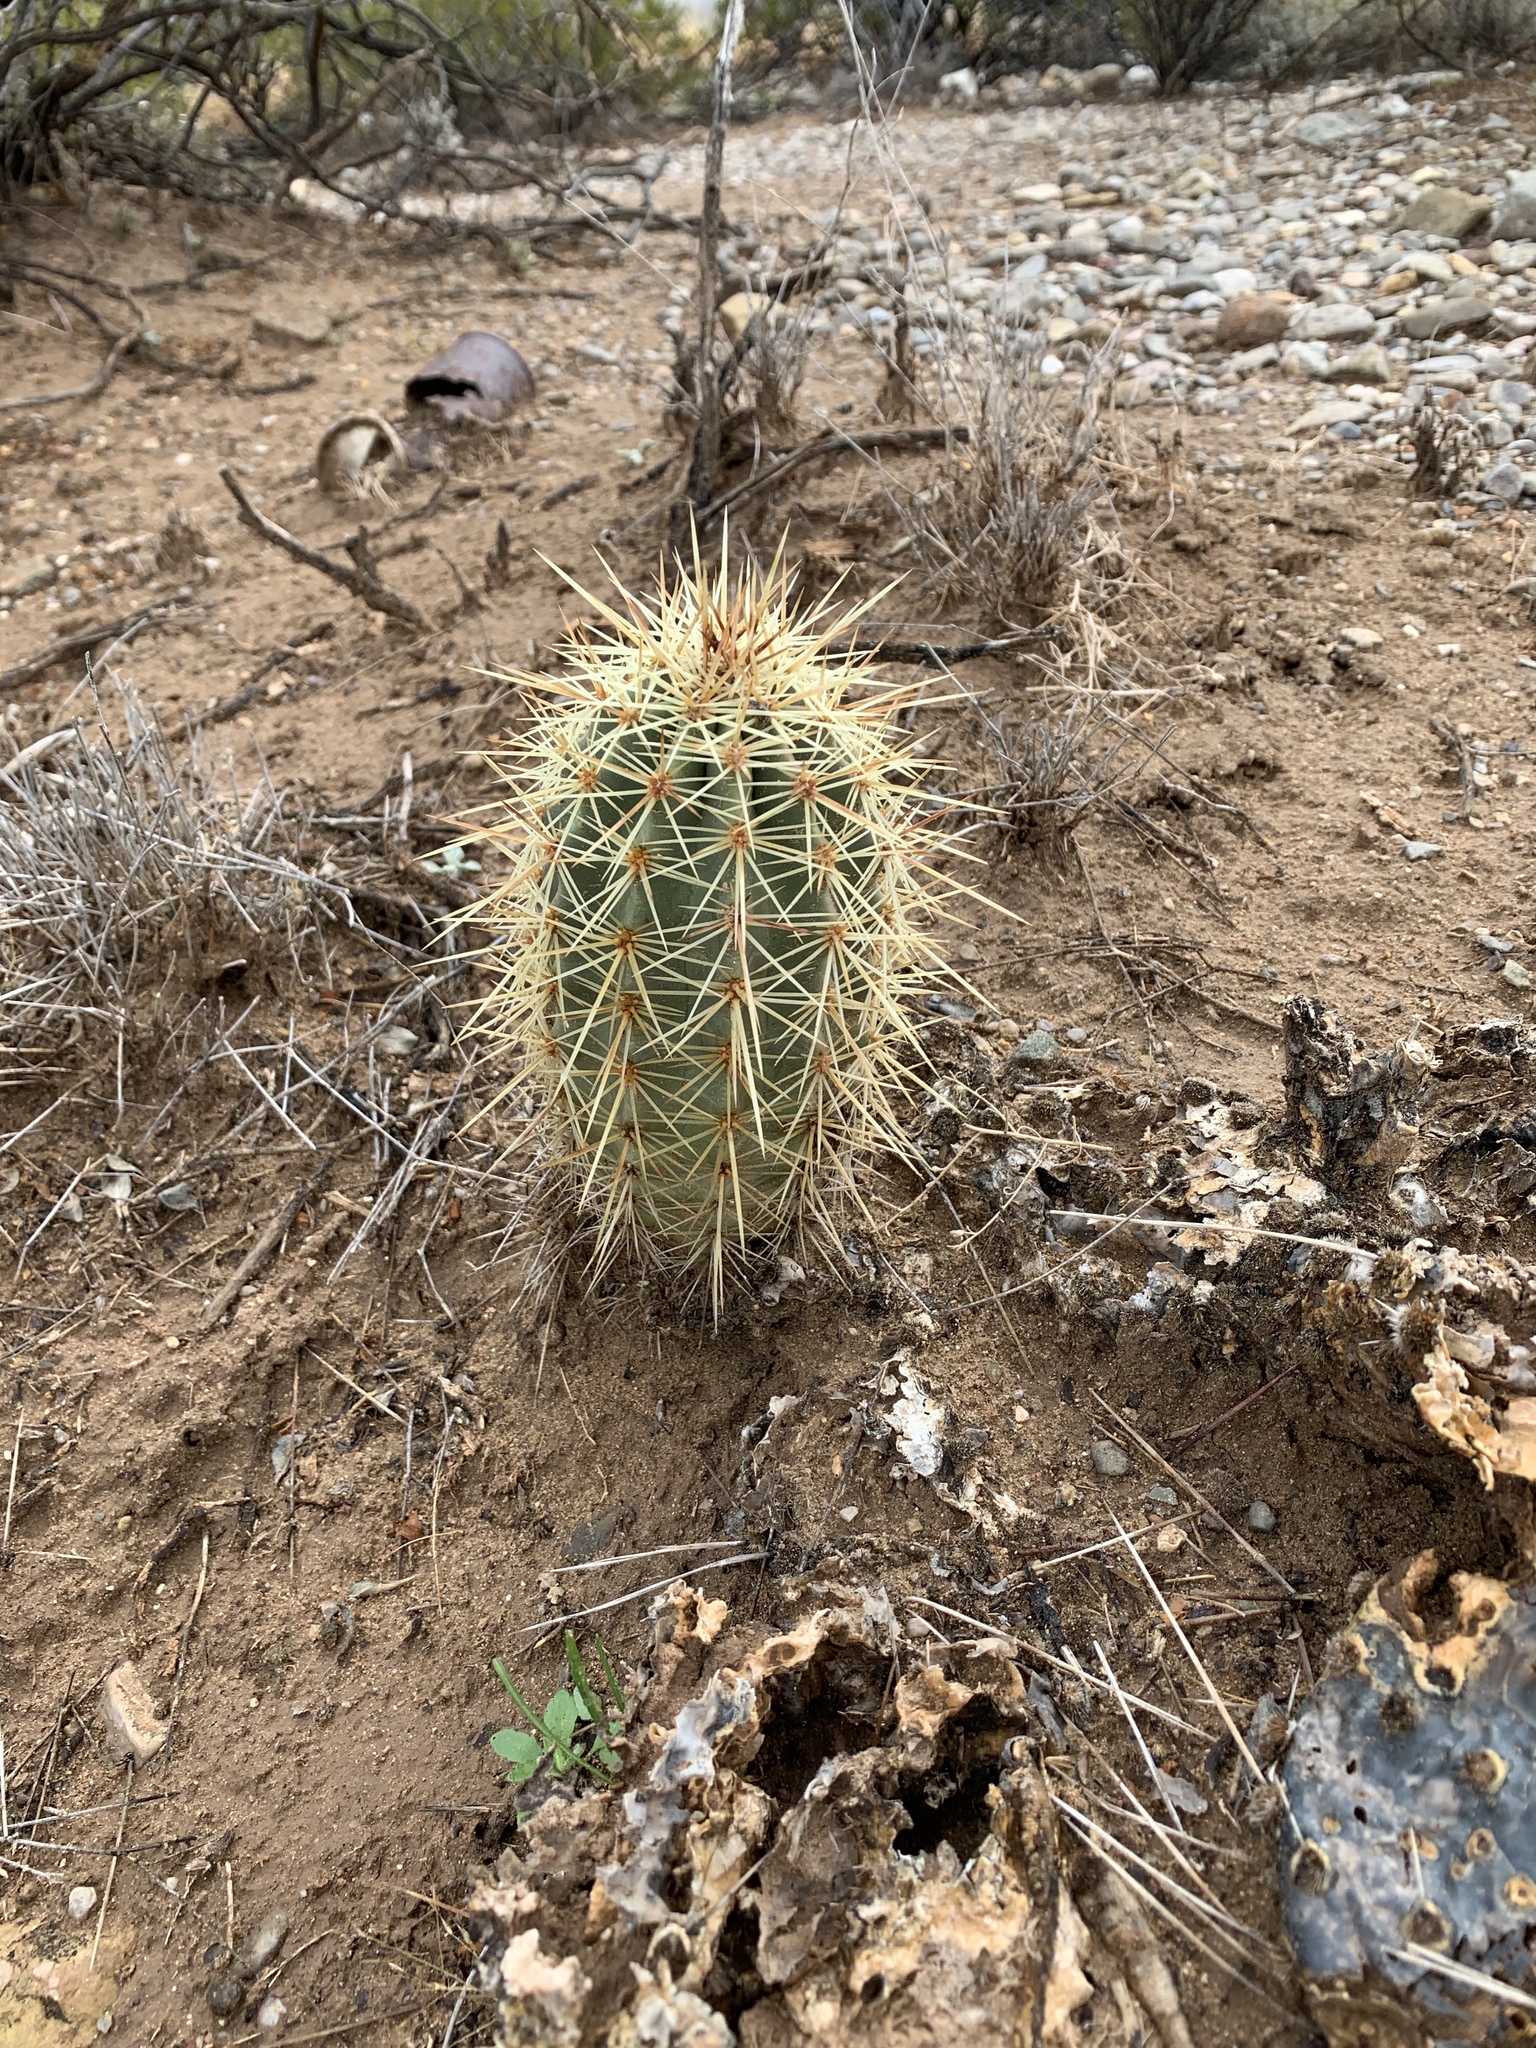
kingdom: Plantae
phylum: Tracheophyta
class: Magnoliopsida
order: Caryophyllales
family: Cactaceae
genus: Echinocereus
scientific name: Echinocereus coccineus
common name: Scarlet hedgehog cactus
